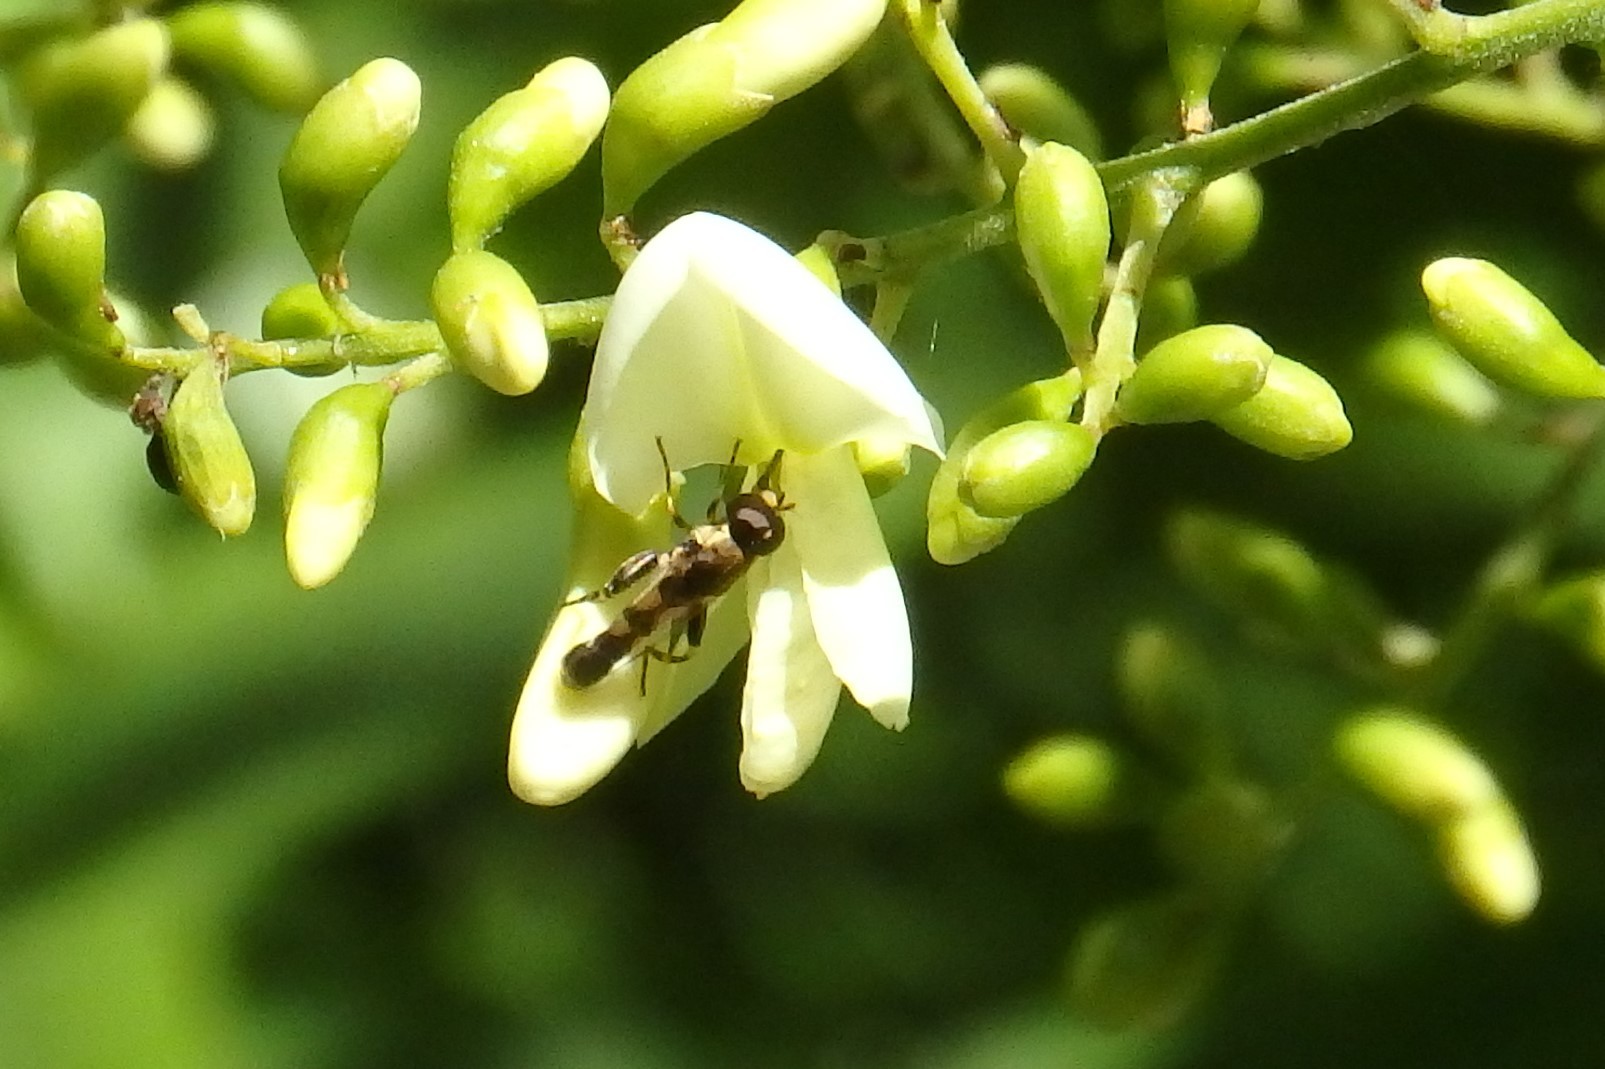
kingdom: Animalia
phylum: Arthropoda
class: Insecta
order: Diptera
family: Syrphidae
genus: Syritta
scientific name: Syritta pipiens
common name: Hover fly
